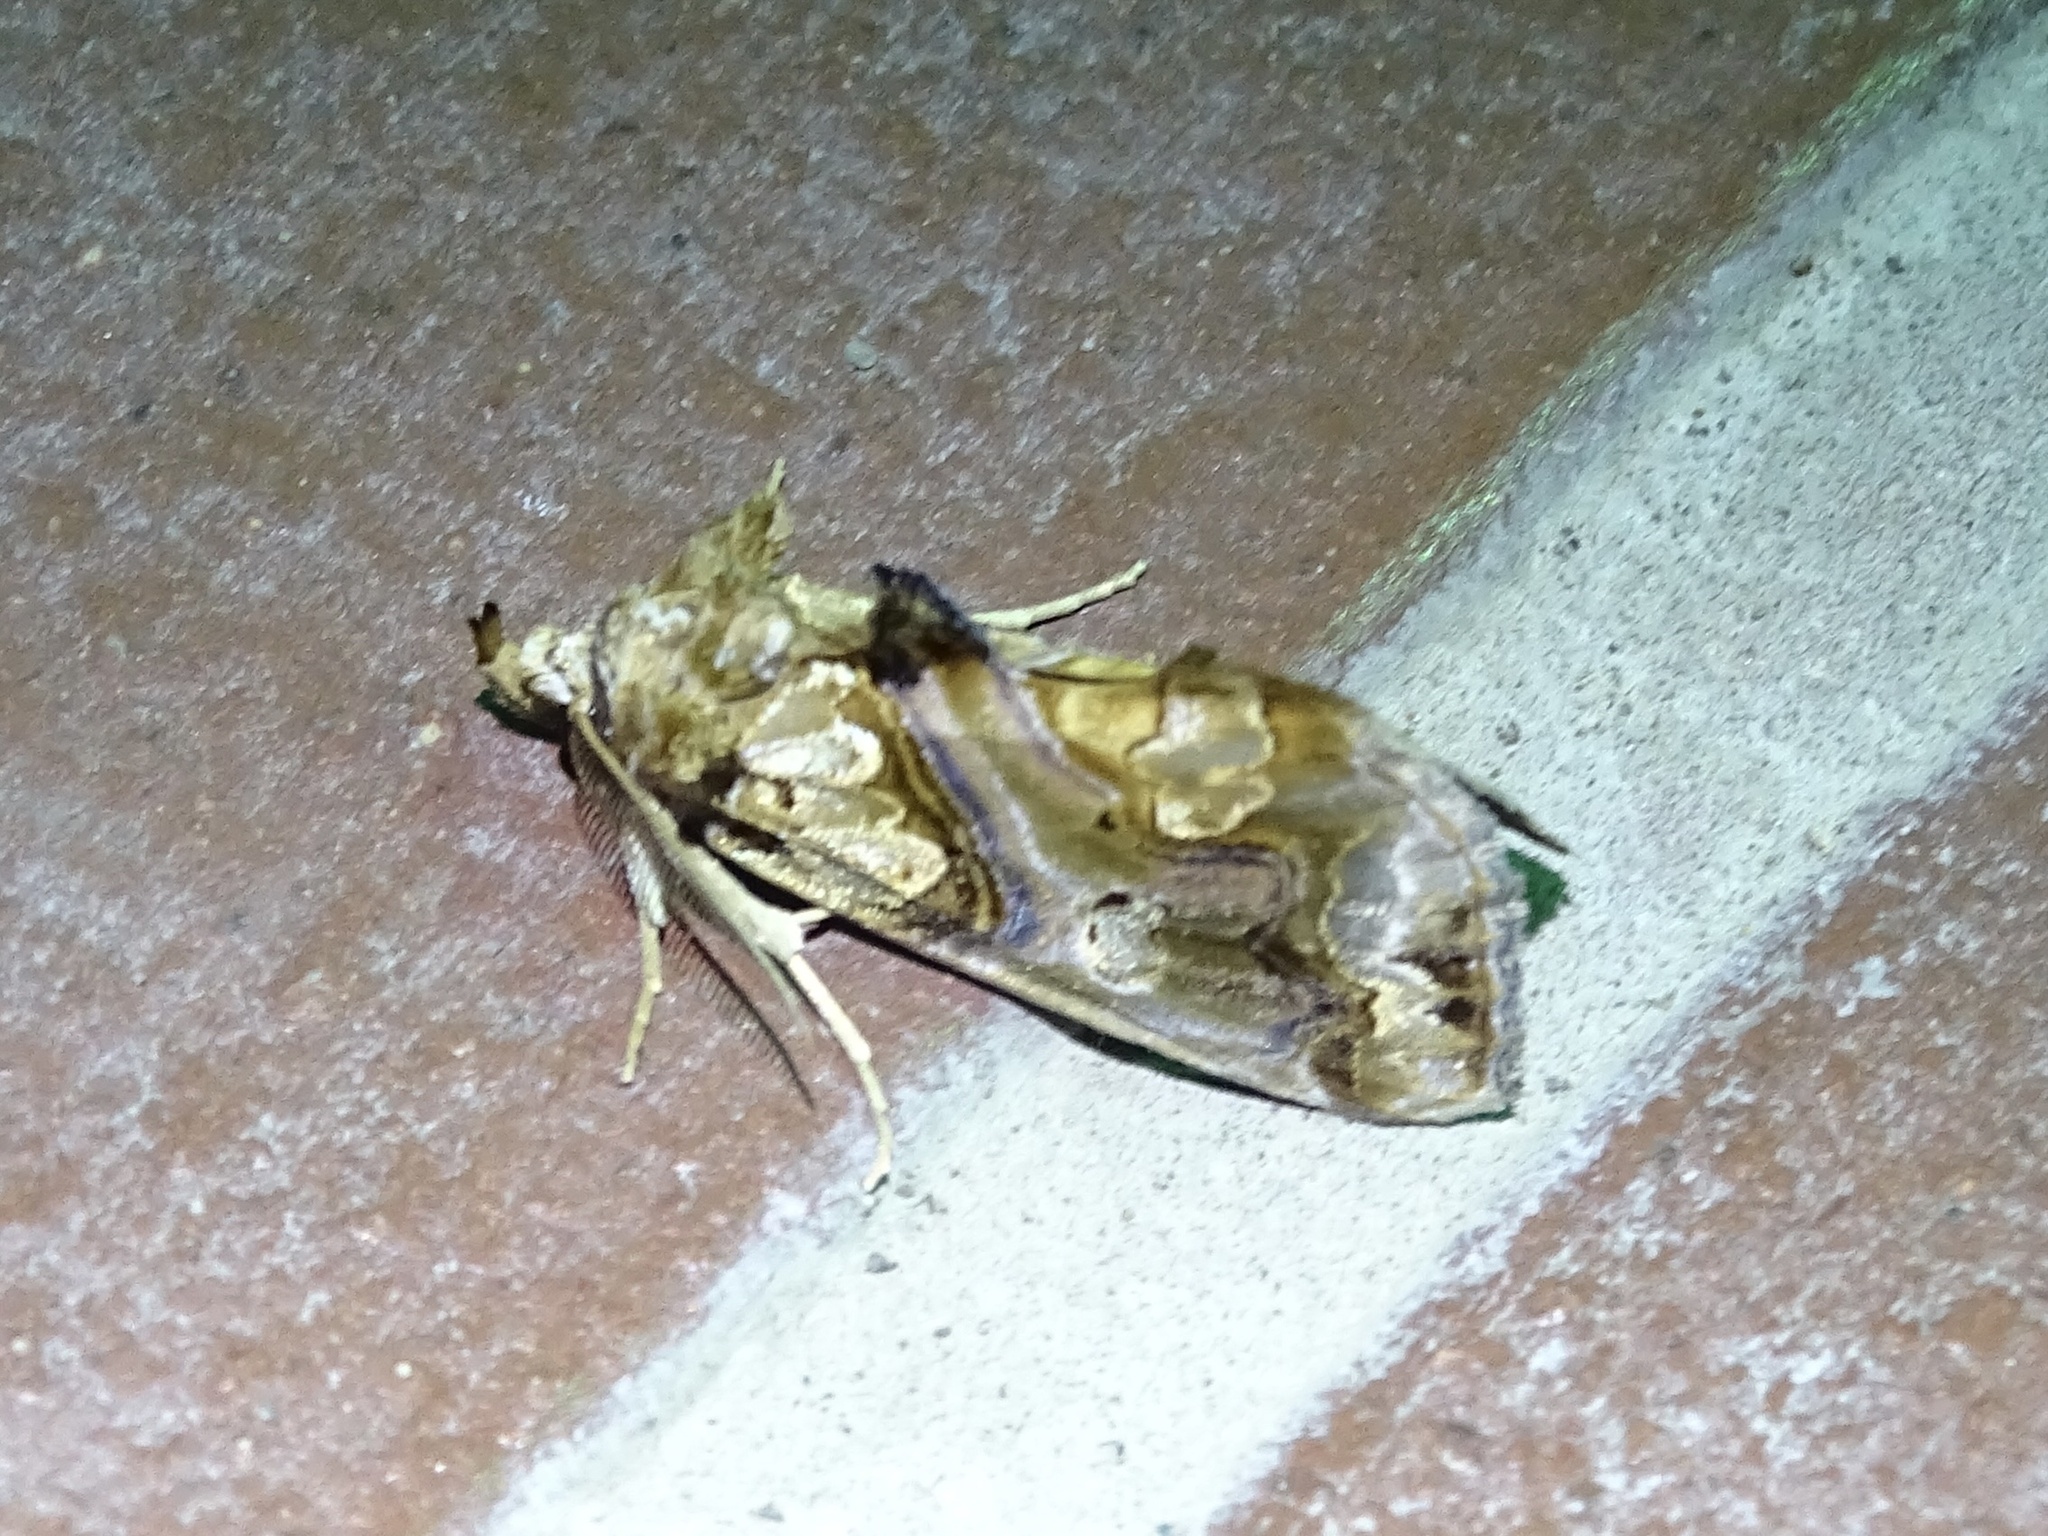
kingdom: Animalia
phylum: Arthropoda
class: Insecta
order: Lepidoptera
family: Erebidae
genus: Plusiodonta
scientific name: Plusiodonta compressipalpis
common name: Moonseed moth
